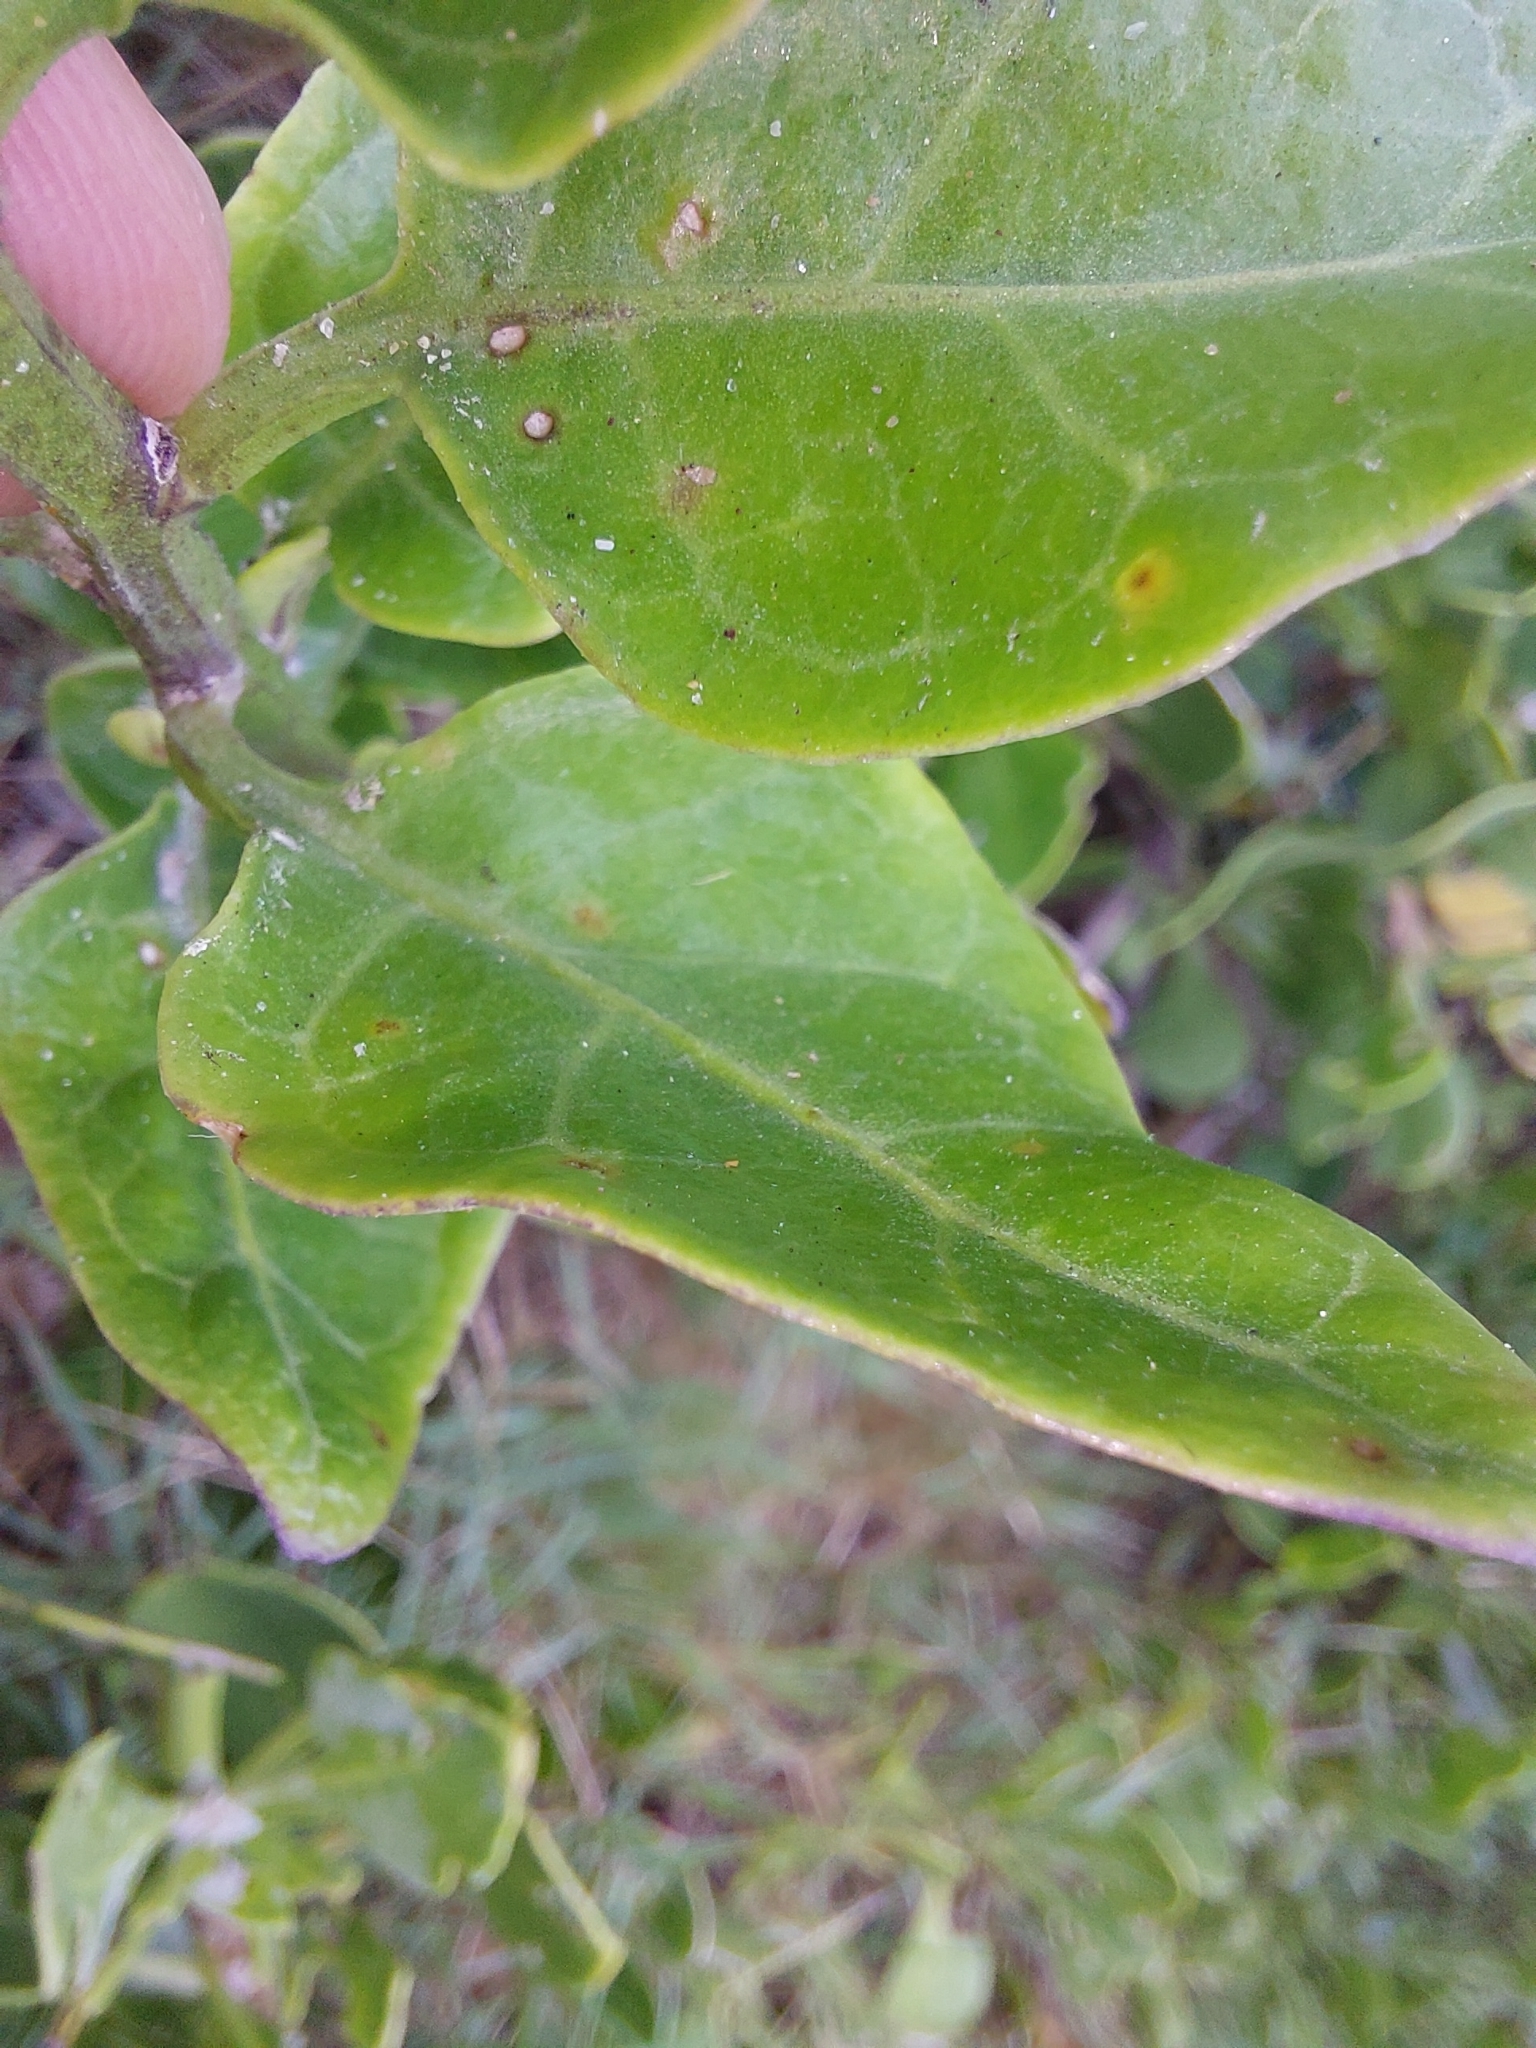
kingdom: Plantae
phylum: Tracheophyta
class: Magnoliopsida
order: Solanales
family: Solanaceae
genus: Solanum
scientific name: Solanum africanum
